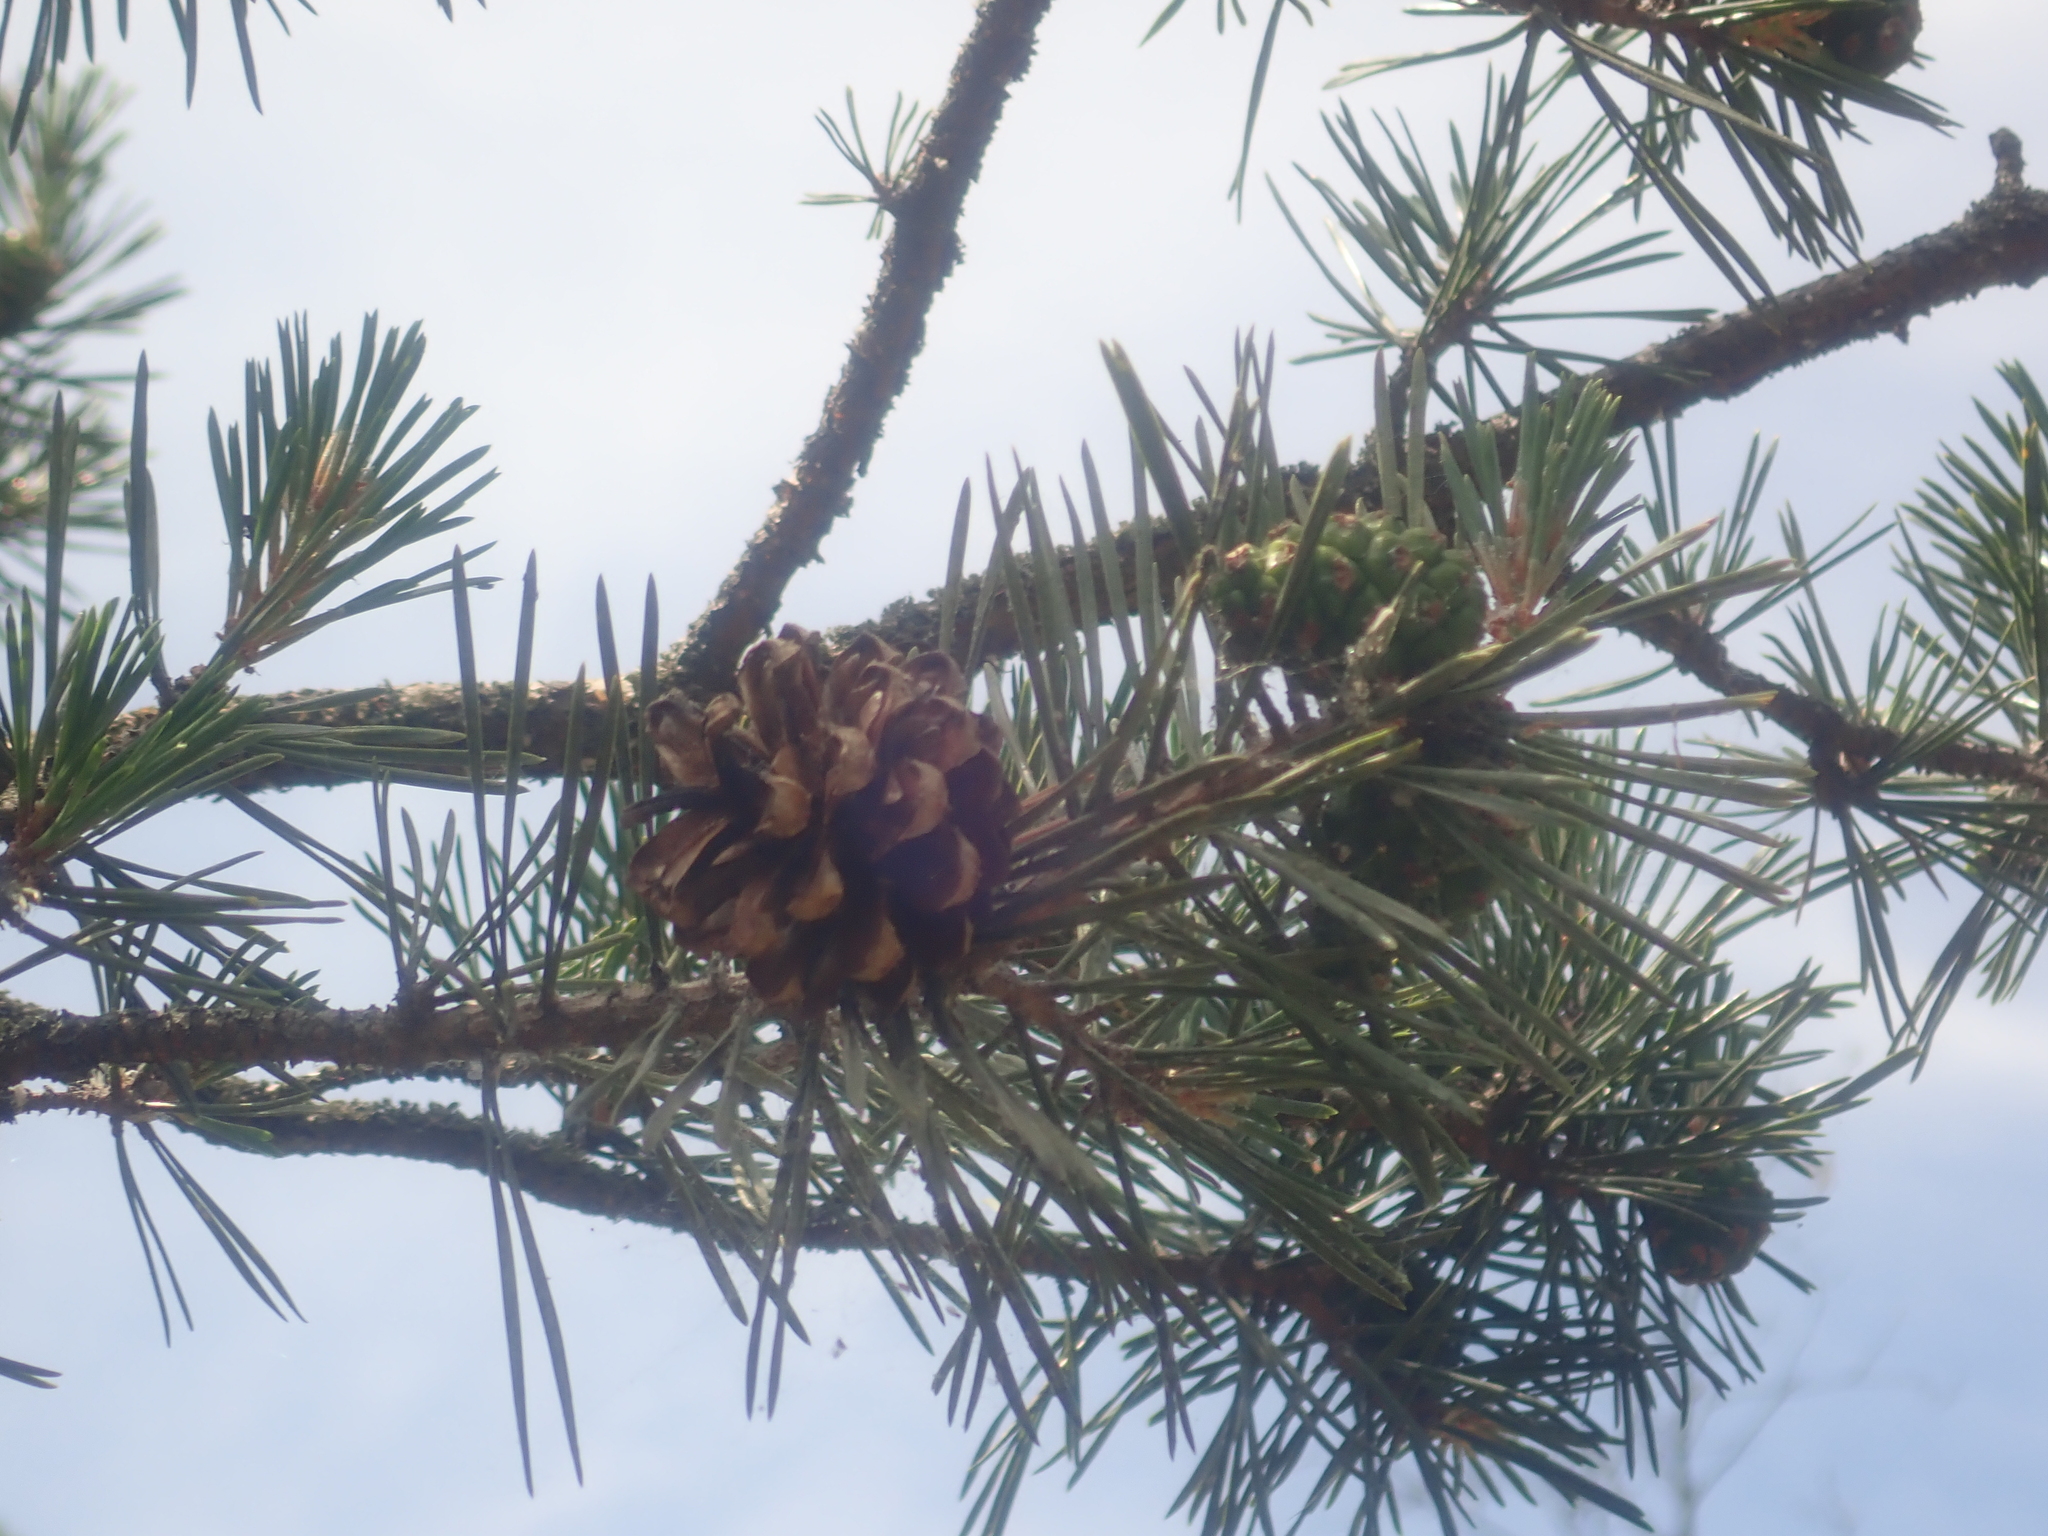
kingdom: Plantae
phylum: Tracheophyta
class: Pinopsida
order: Pinales
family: Pinaceae
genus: Pinus
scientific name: Pinus sylvestris
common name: Scots pine
